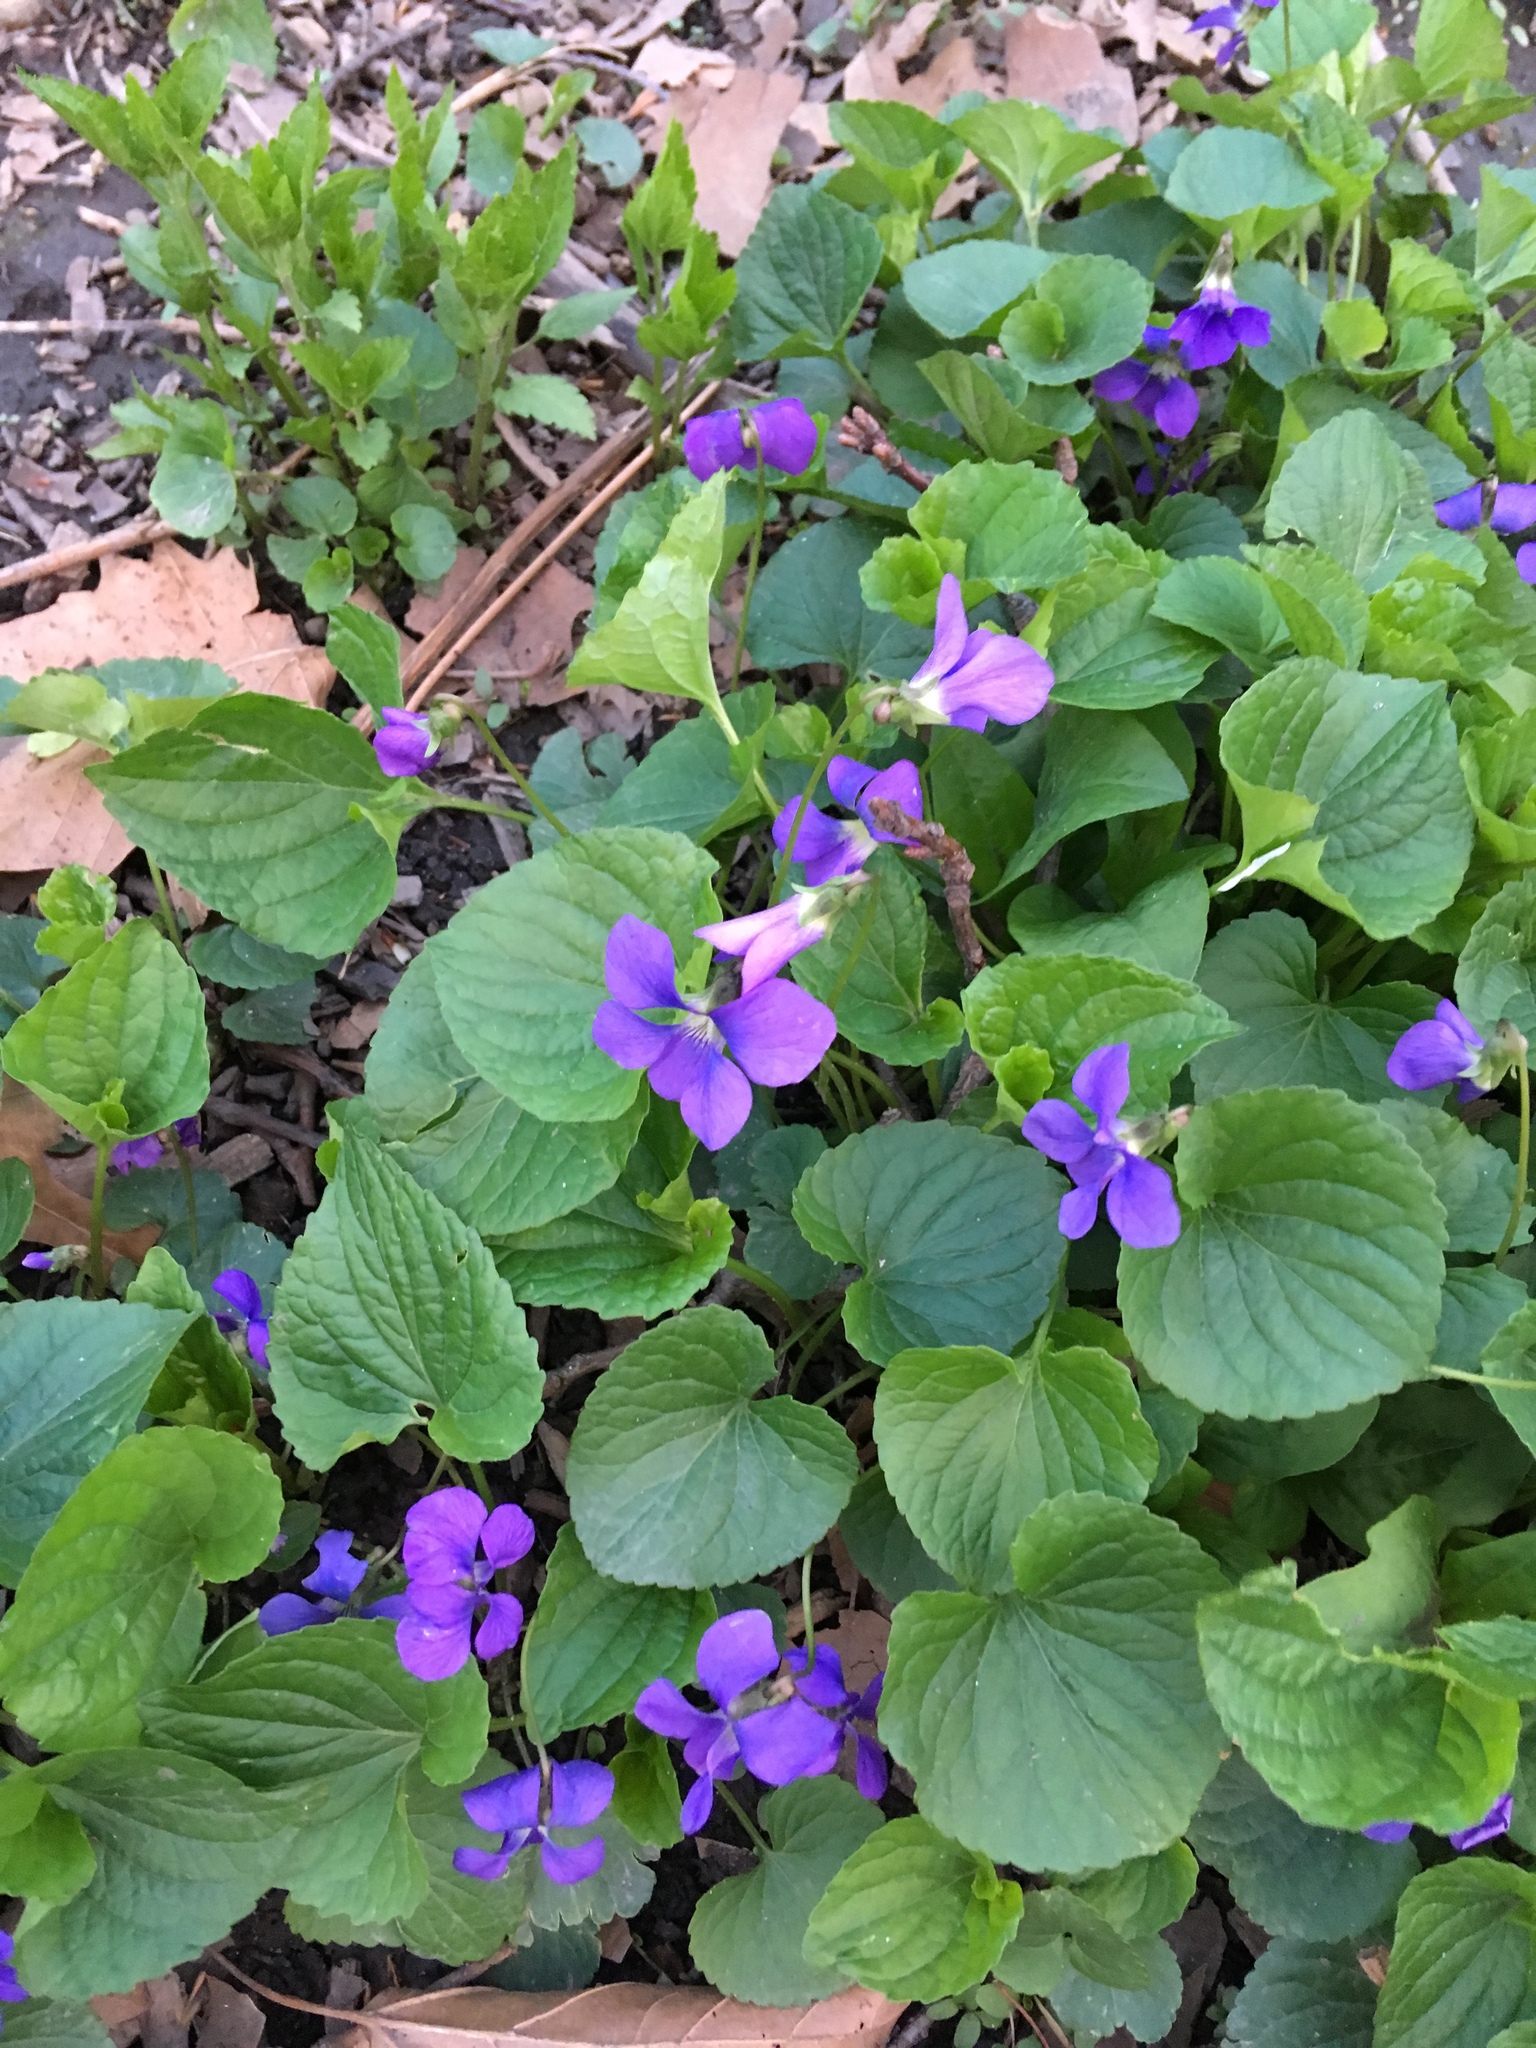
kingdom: Plantae
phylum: Tracheophyta
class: Magnoliopsida
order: Malpighiales
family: Violaceae
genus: Viola
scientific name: Viola sororia
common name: Dooryard violet
